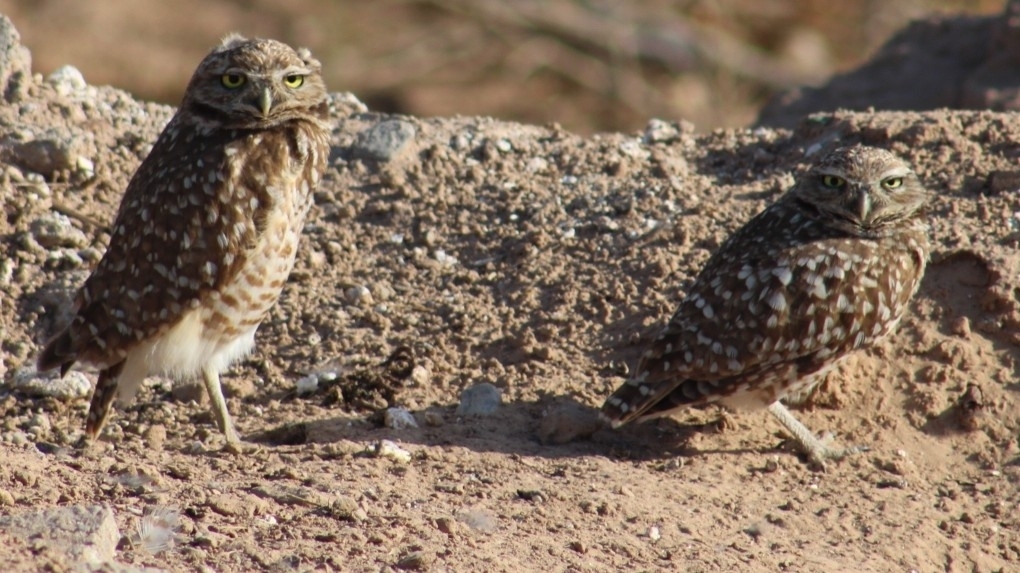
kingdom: Animalia
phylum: Chordata
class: Aves
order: Strigiformes
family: Strigidae
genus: Athene
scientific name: Athene cunicularia
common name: Burrowing owl
